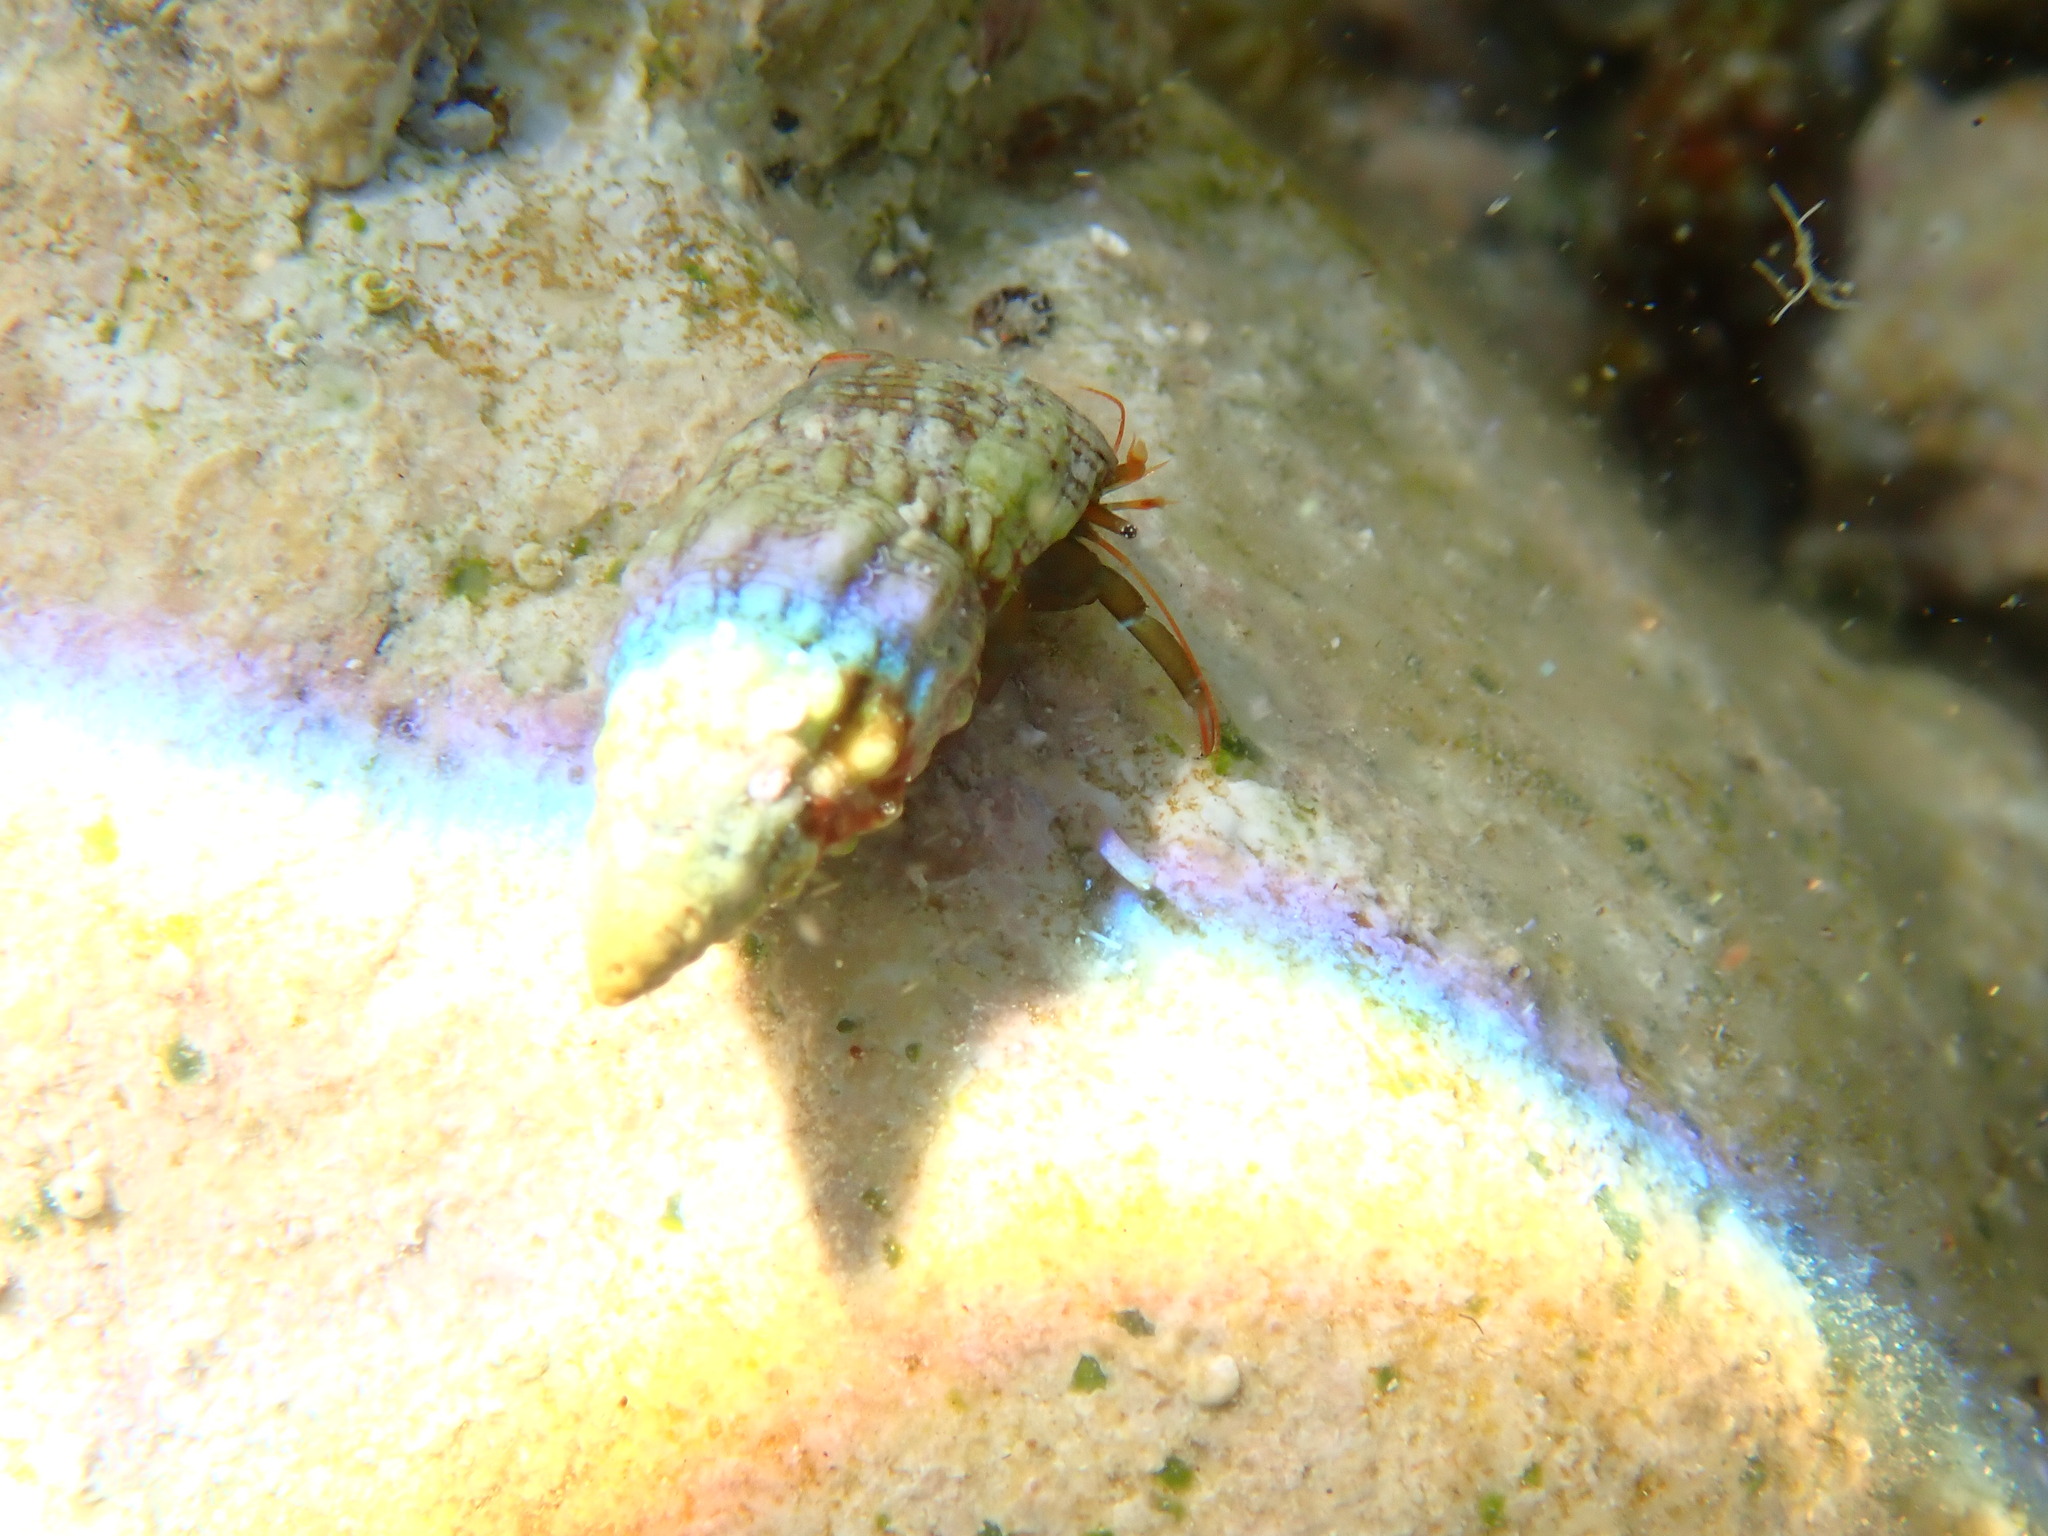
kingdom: Animalia
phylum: Arthropoda
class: Malacostraca
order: Decapoda
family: Diogenidae
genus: Clibanarius
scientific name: Clibanarius erythropus
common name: Hermit crab
